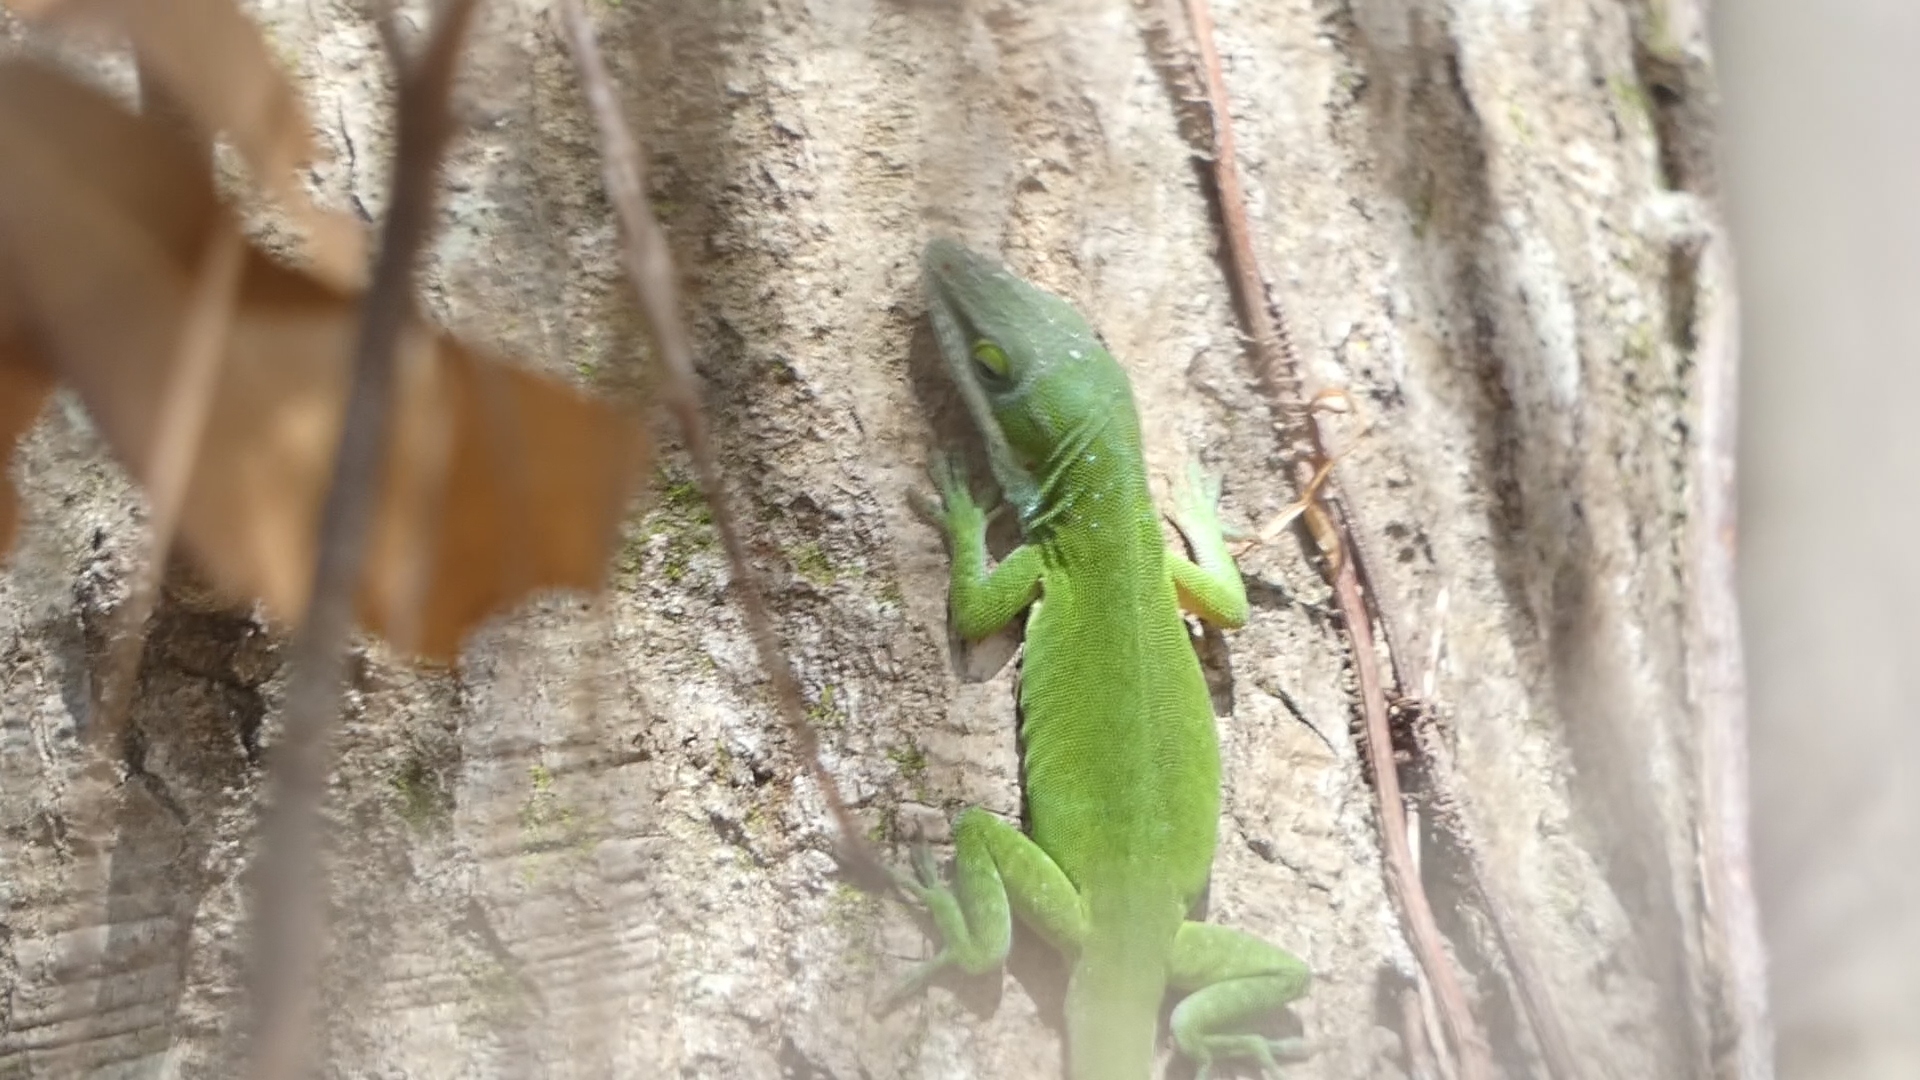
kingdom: Animalia
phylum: Chordata
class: Squamata
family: Dactyloidae
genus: Anolis
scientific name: Anolis carolinensis
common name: Green anole
